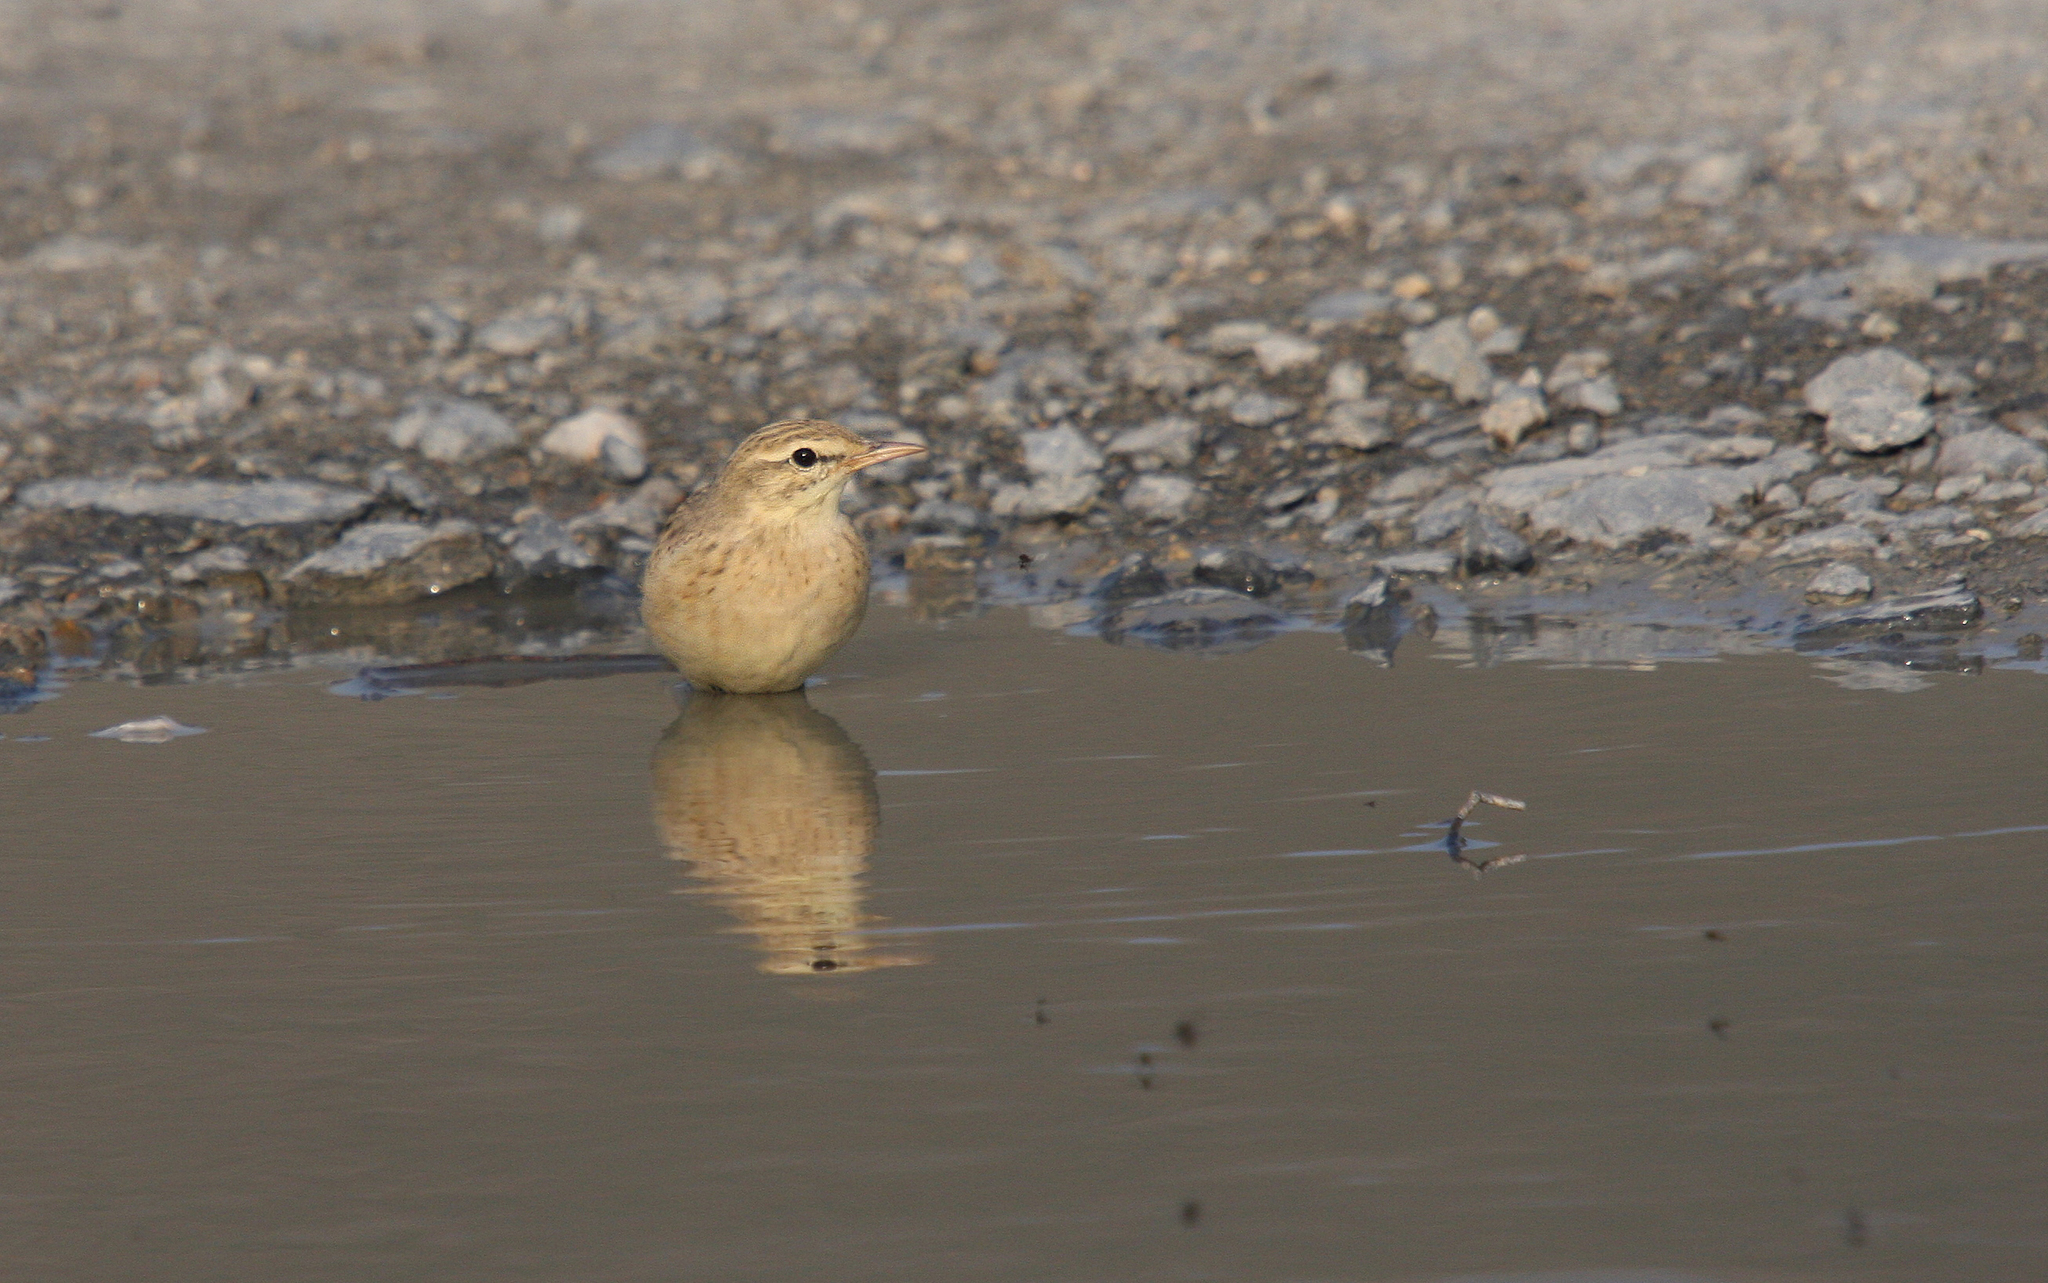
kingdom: Animalia
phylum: Chordata
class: Aves
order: Passeriformes
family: Motacillidae
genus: Anthus
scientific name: Anthus campestris
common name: Tawny pipit
